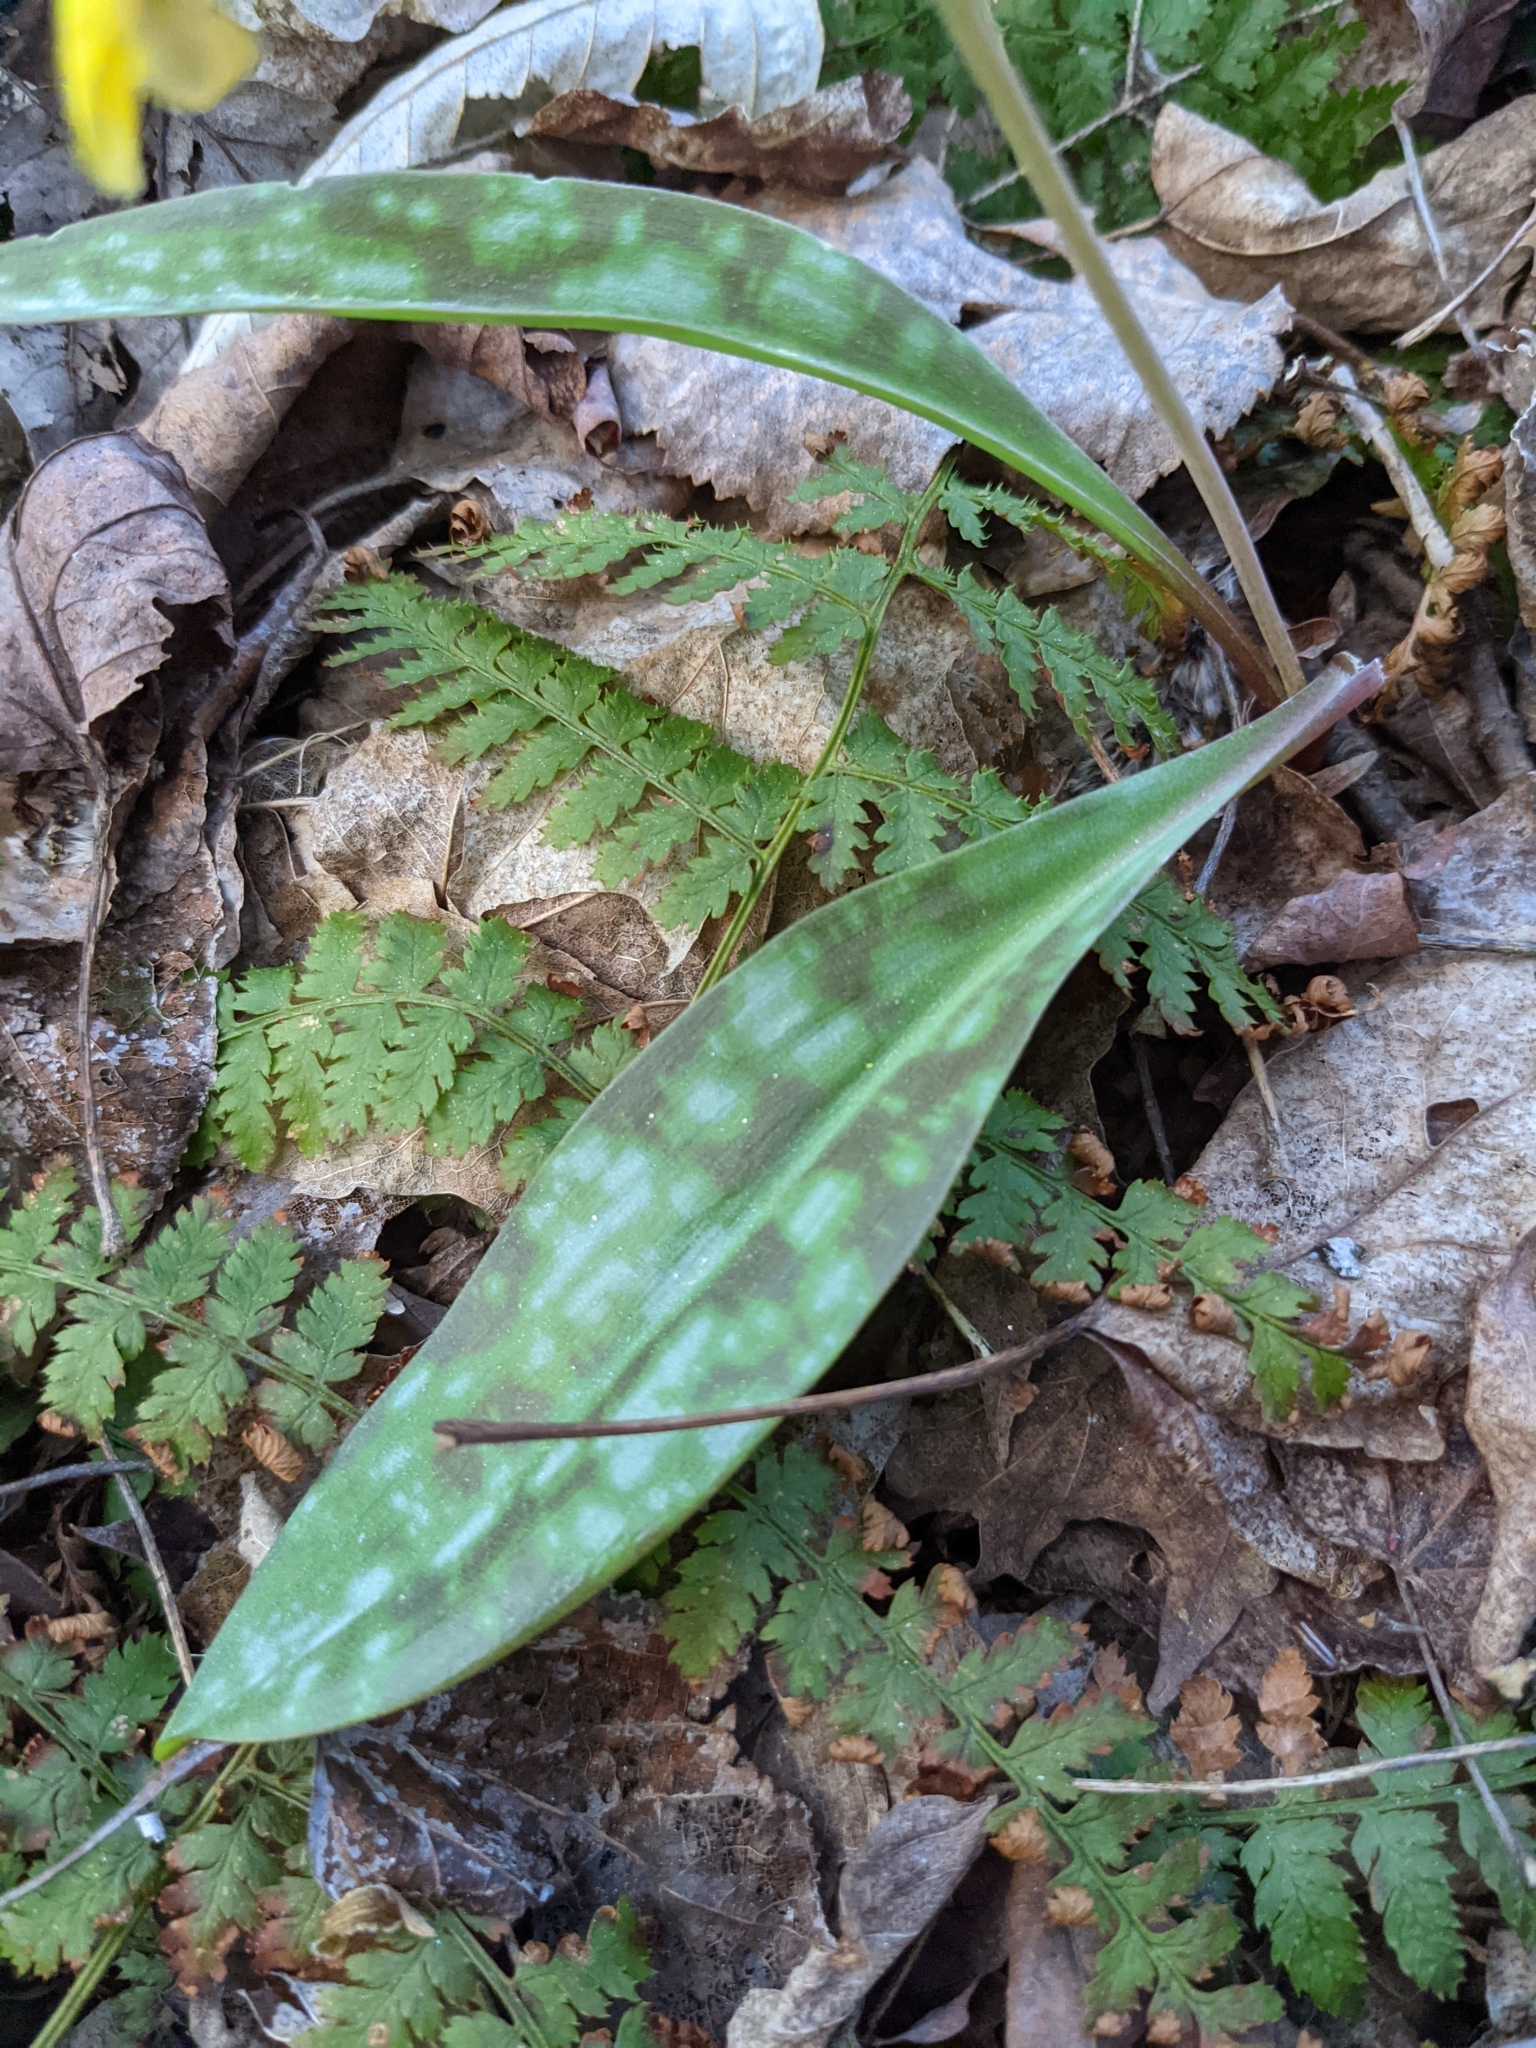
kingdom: Plantae
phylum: Tracheophyta
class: Liliopsida
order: Liliales
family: Liliaceae
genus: Erythronium
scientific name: Erythronium americanum
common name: Yellow adder's-tongue
